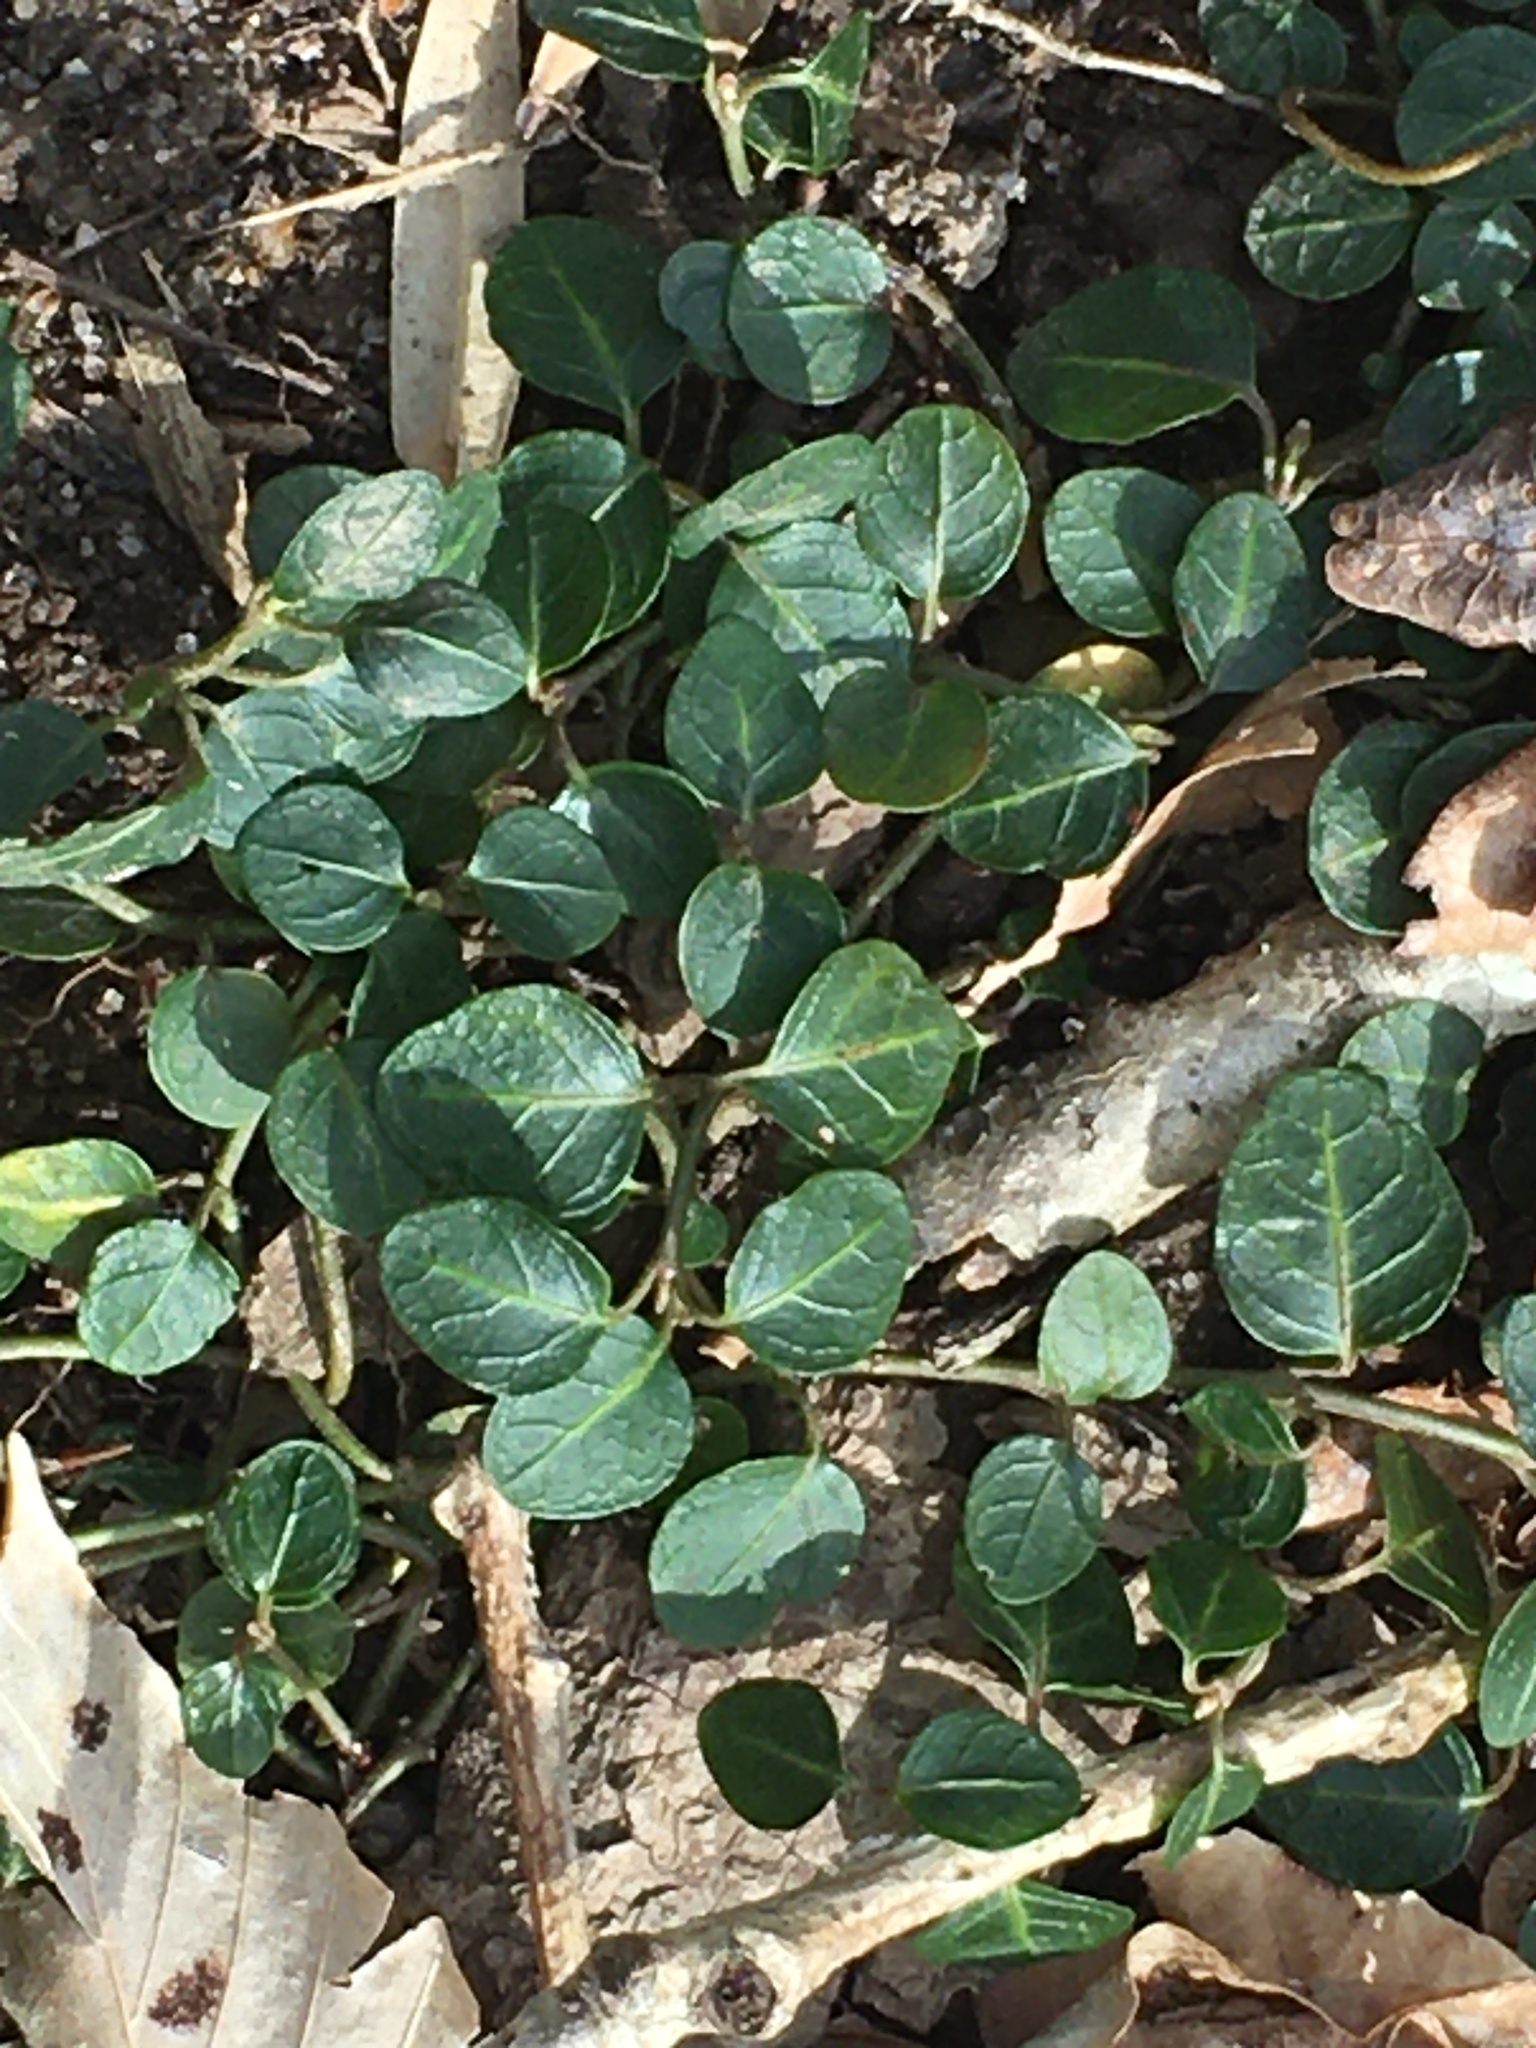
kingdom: Plantae
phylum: Tracheophyta
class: Magnoliopsida
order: Gentianales
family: Rubiaceae
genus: Mitchella
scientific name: Mitchella repens
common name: Partridge-berry
